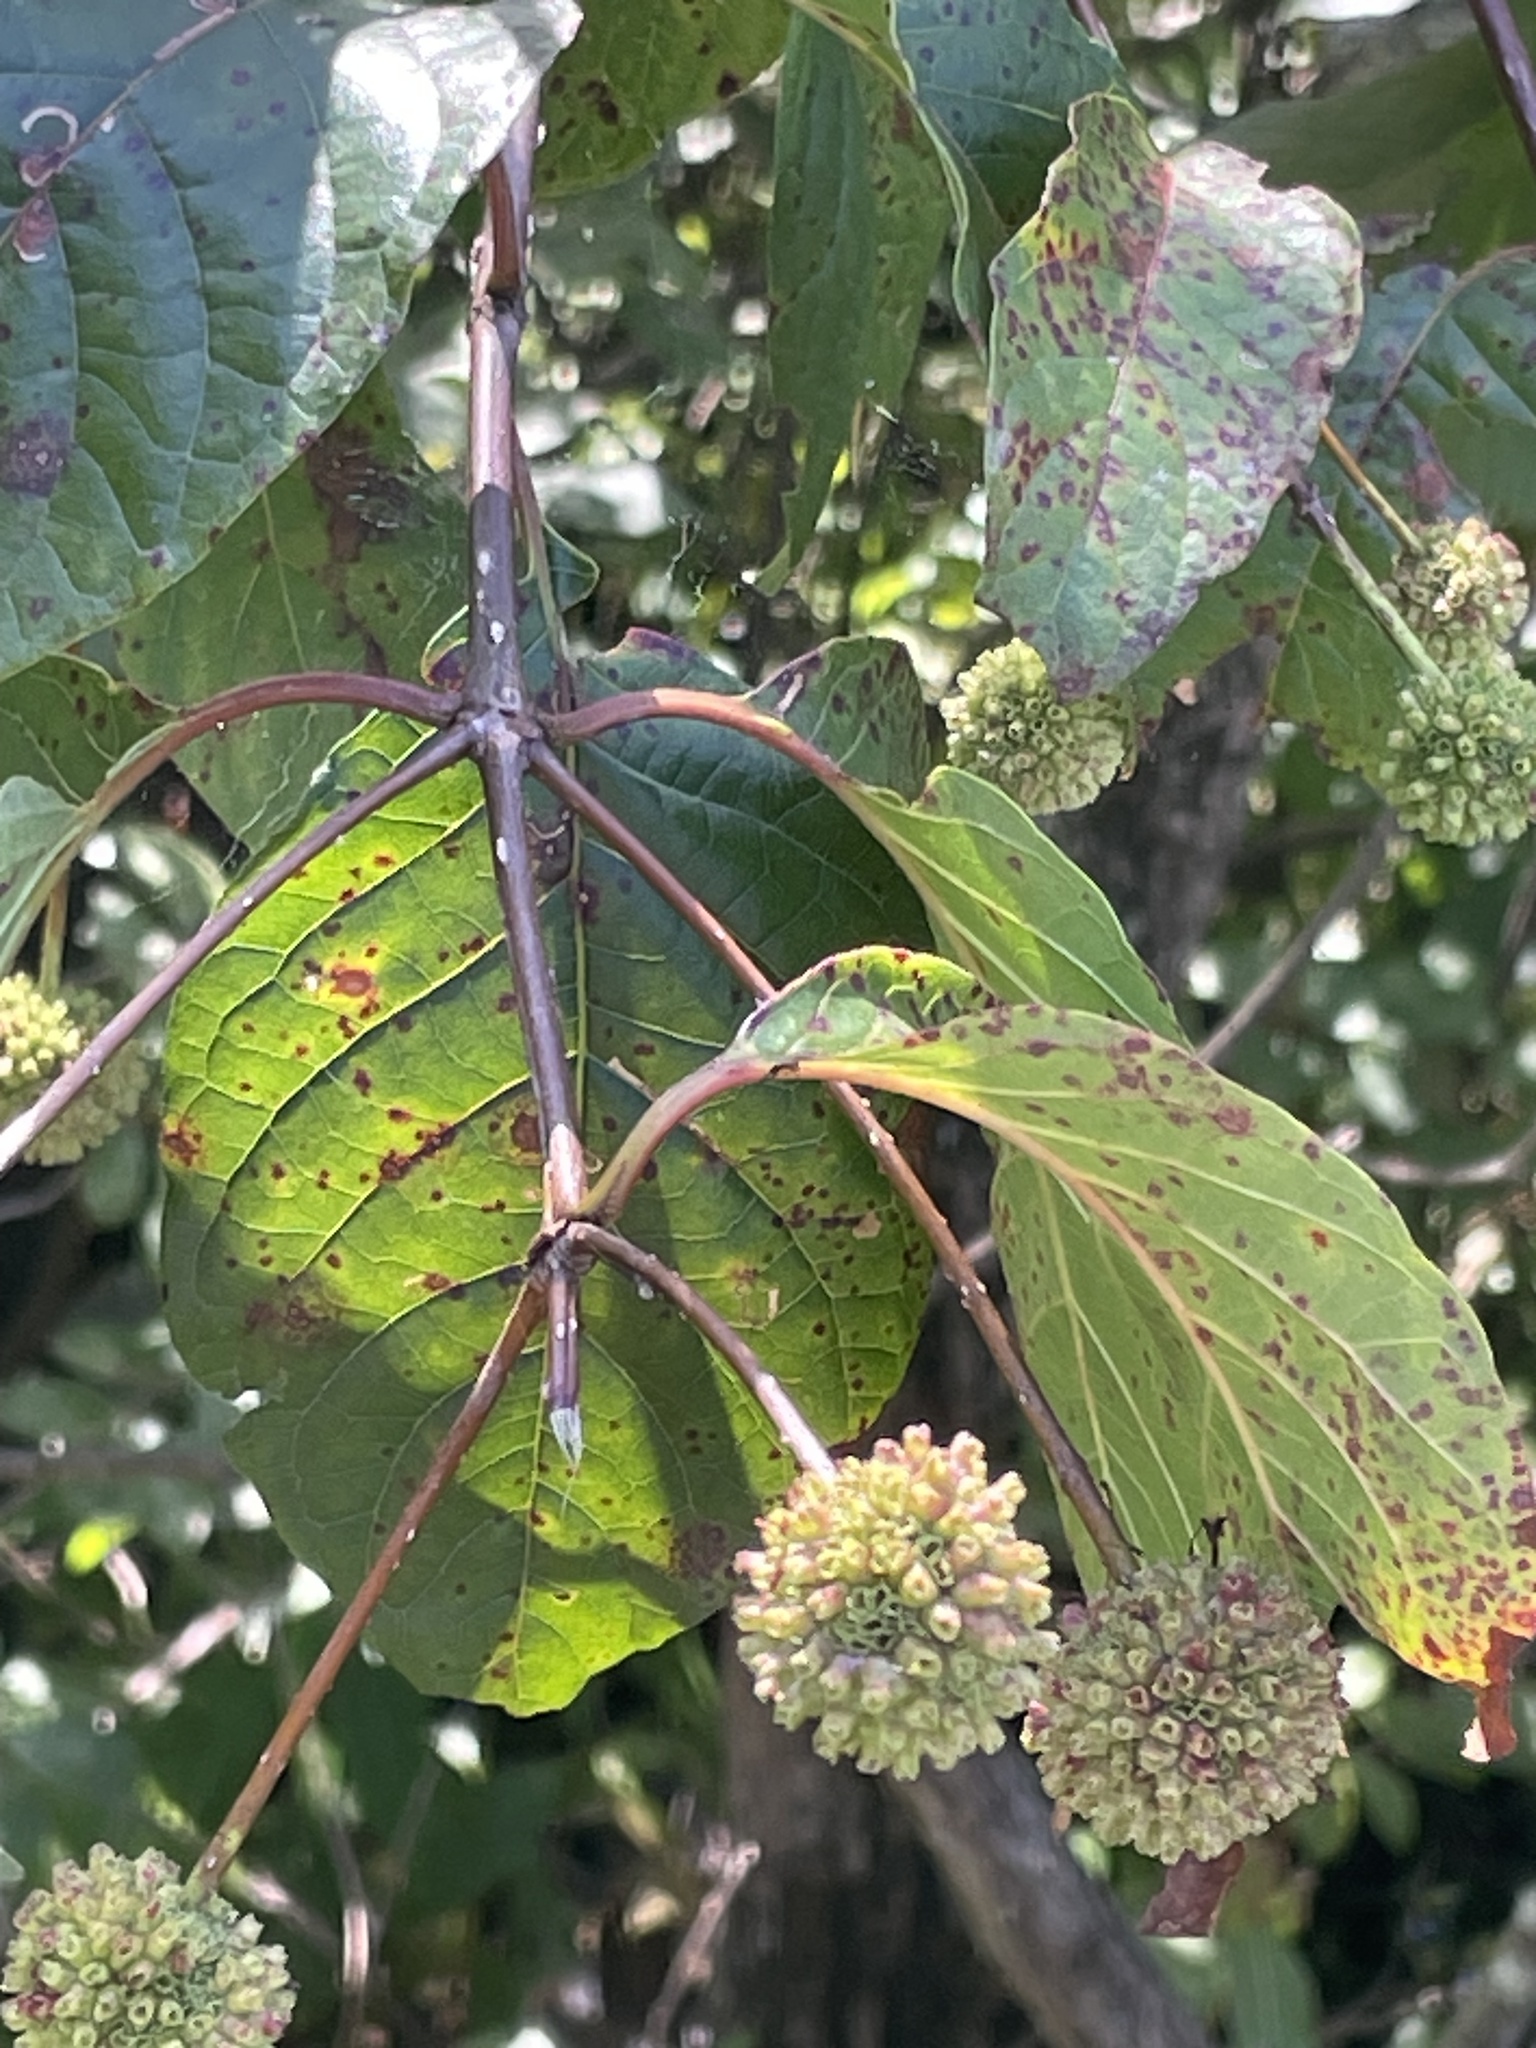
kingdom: Plantae
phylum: Tracheophyta
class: Magnoliopsida
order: Gentianales
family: Rubiaceae
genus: Cephalanthus
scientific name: Cephalanthus occidentalis
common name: Button-willow
